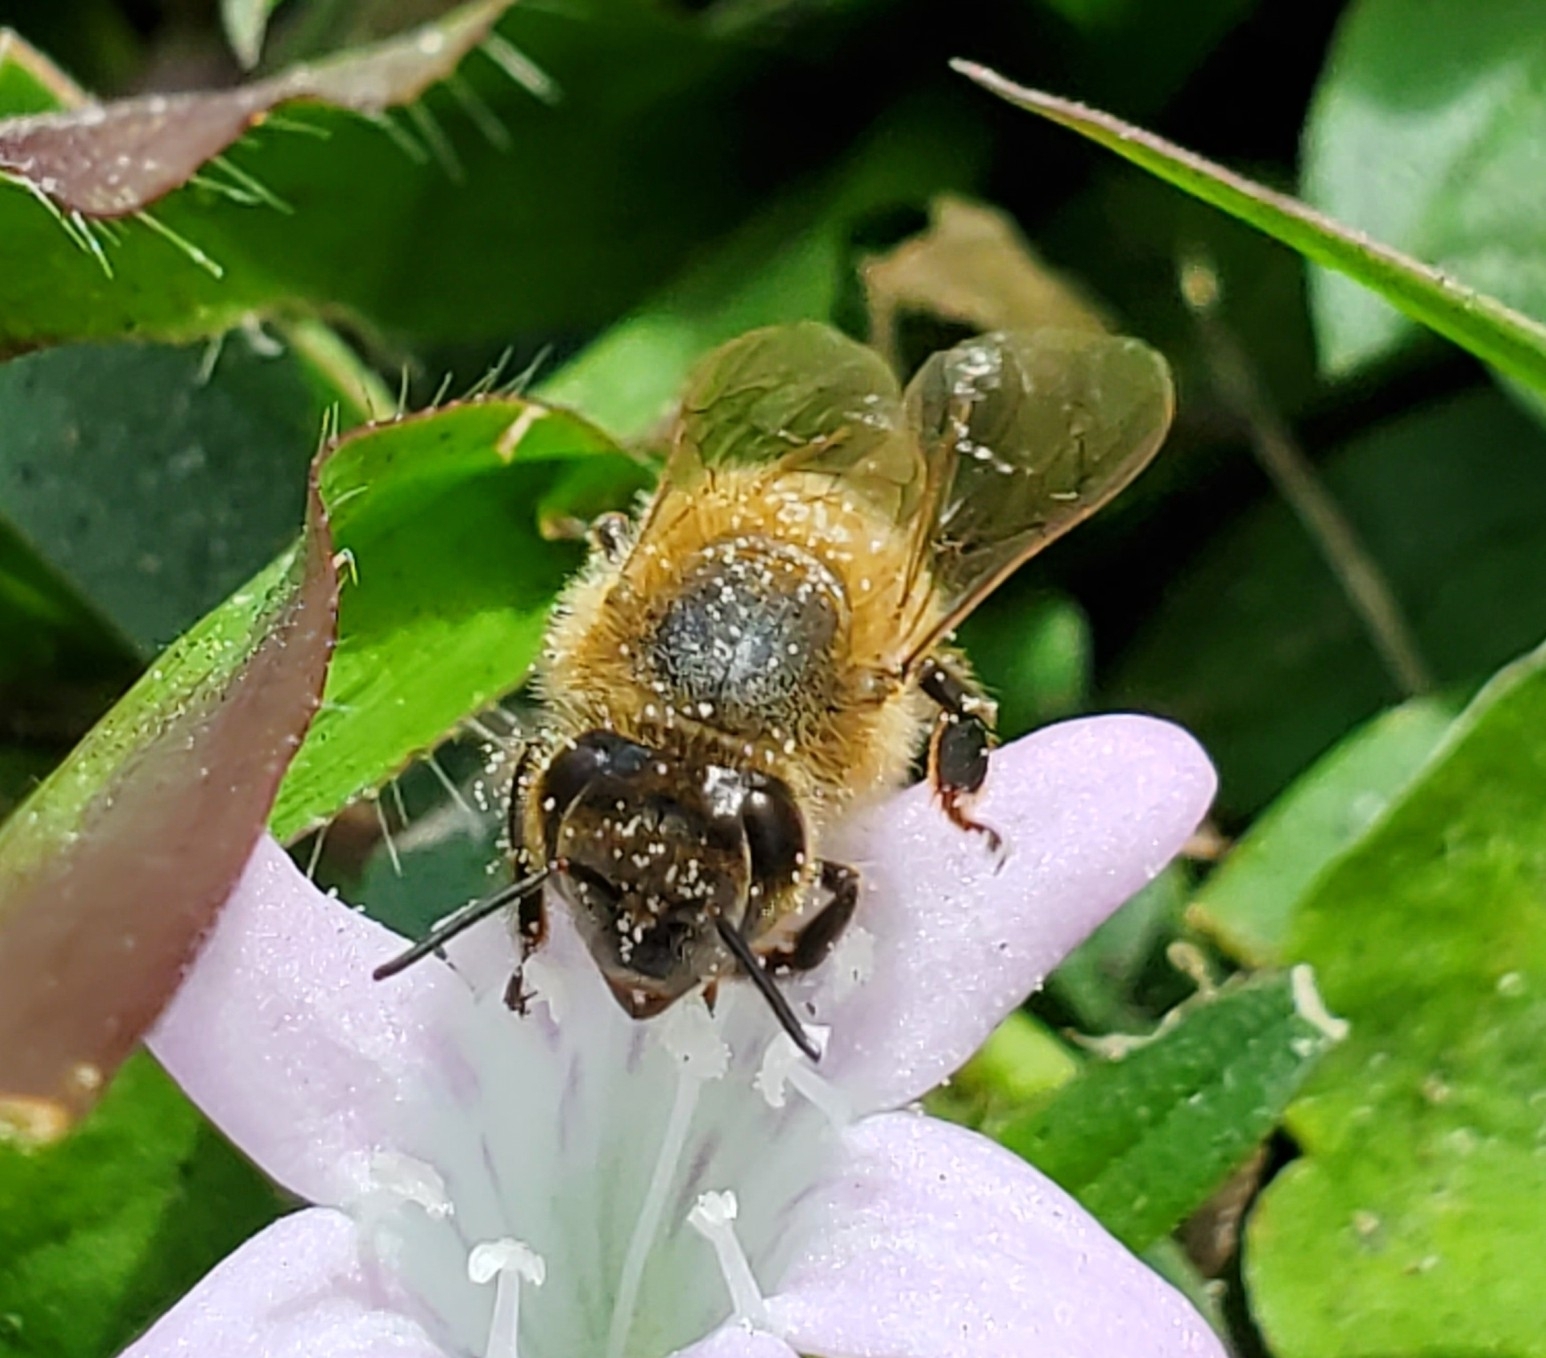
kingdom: Animalia
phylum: Arthropoda
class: Insecta
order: Hymenoptera
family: Apidae
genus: Apis
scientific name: Apis mellifera
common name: Honey bee
